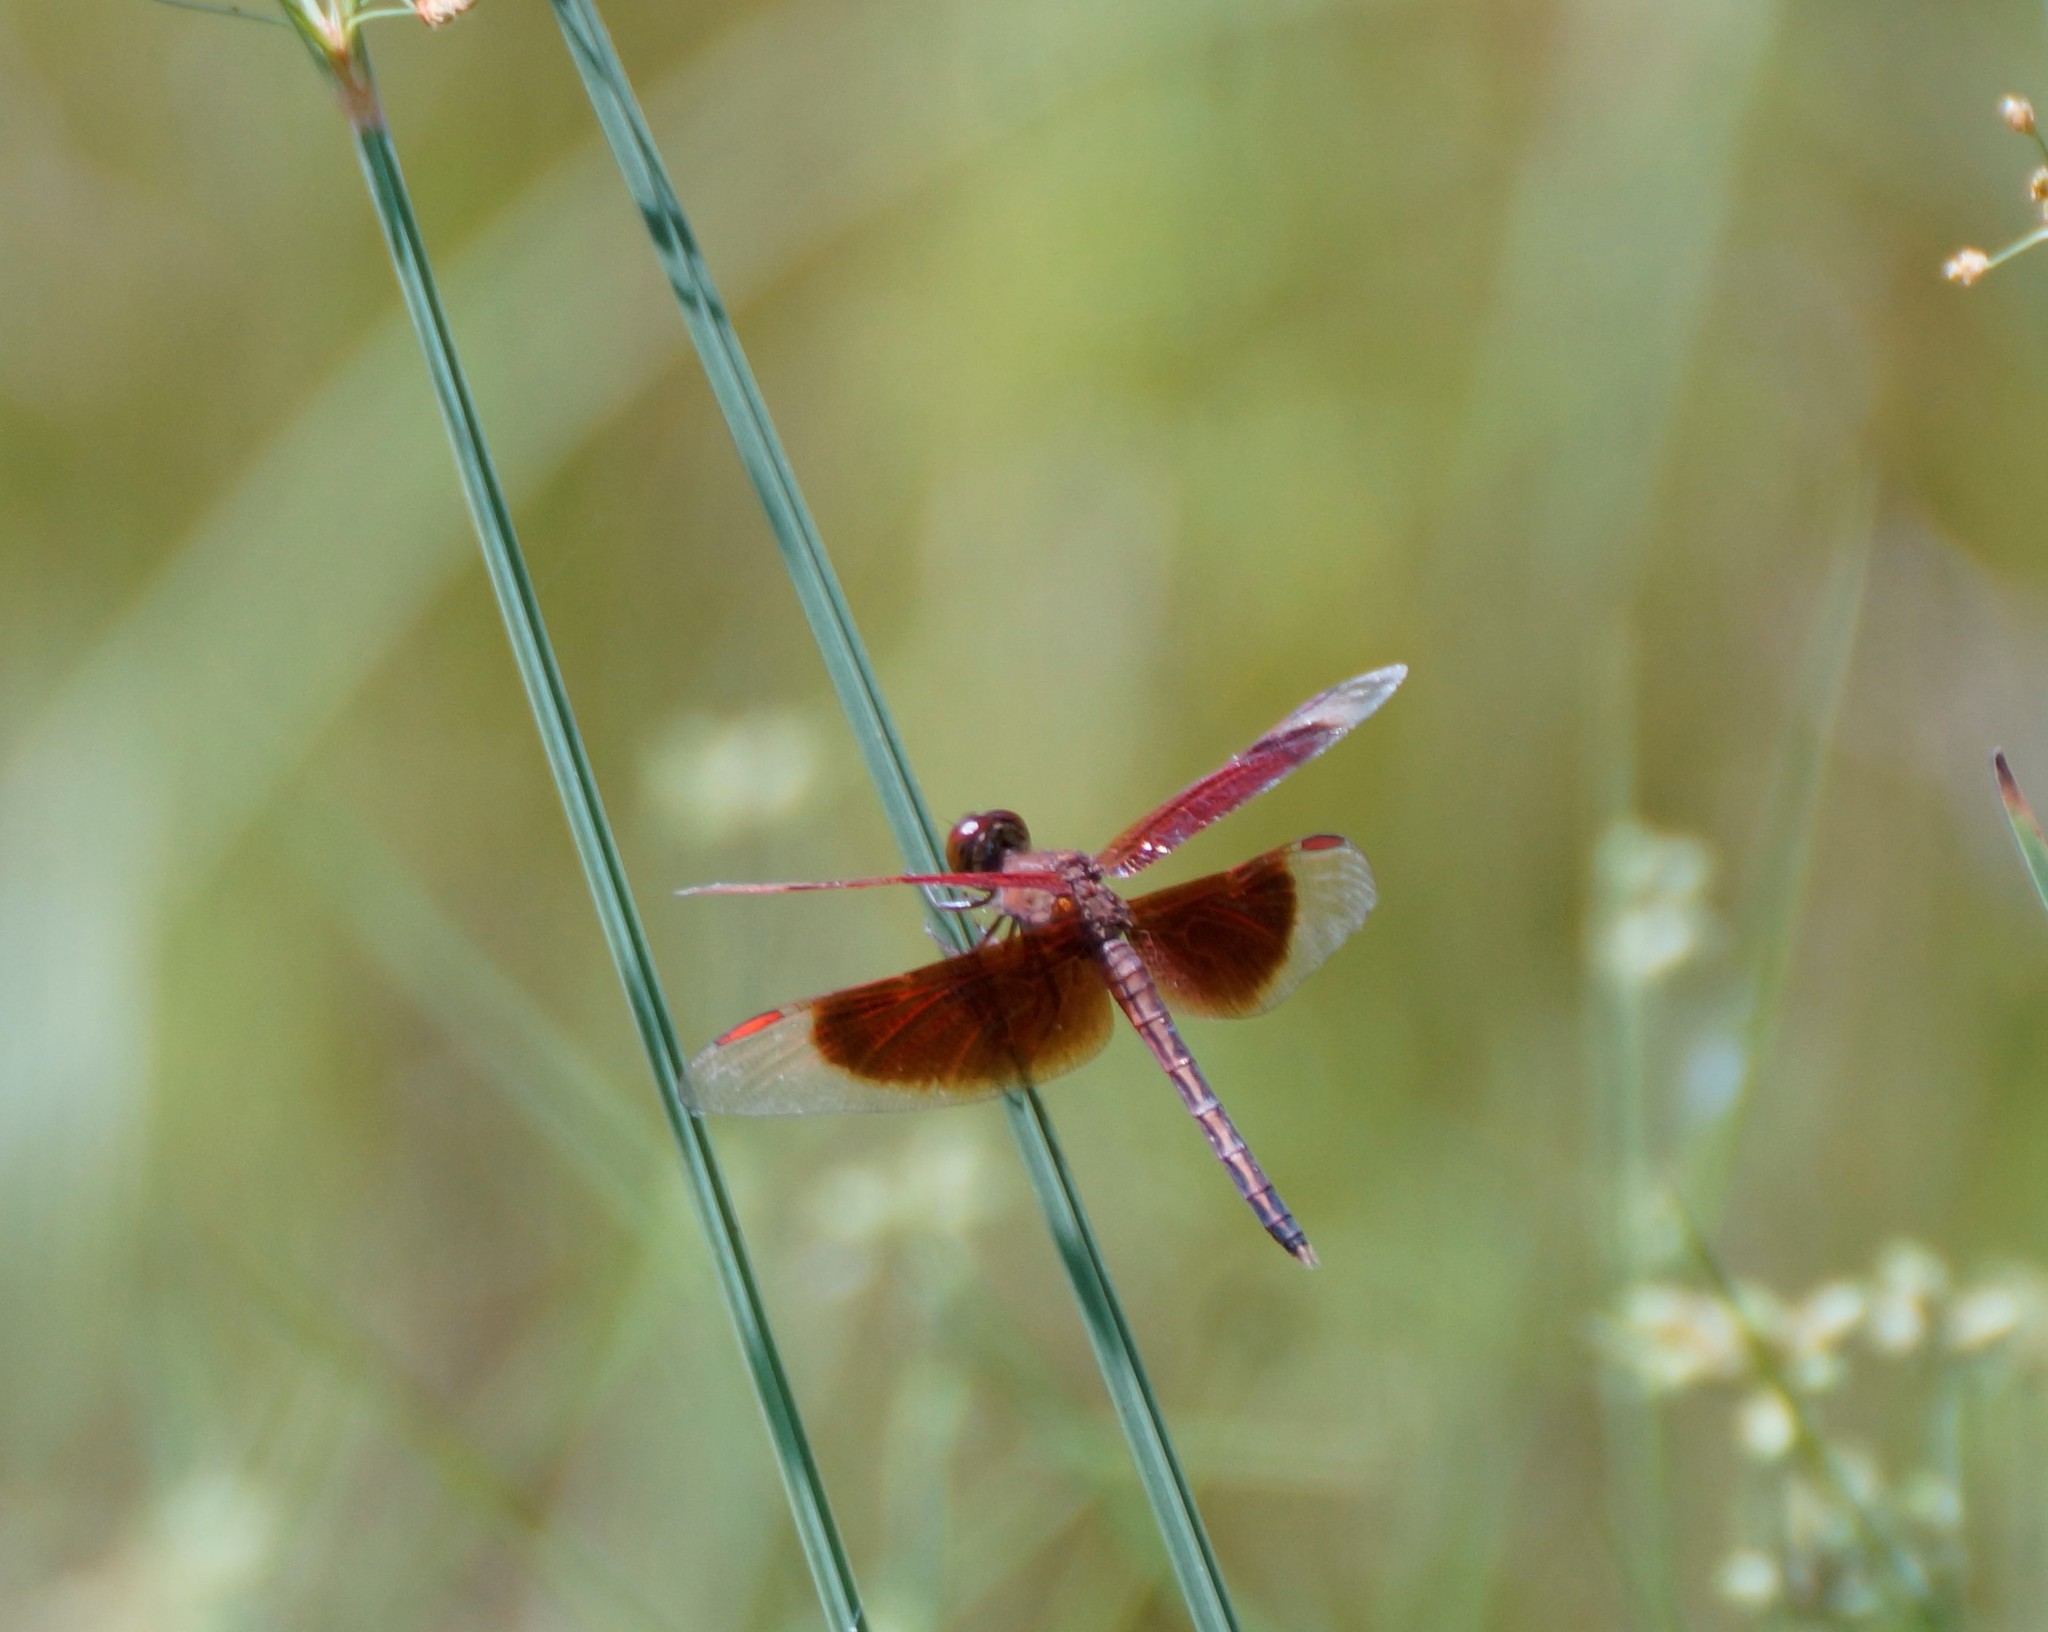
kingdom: Animalia
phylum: Arthropoda
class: Insecta
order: Odonata
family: Libellulidae
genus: Neurothemis
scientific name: Neurothemis stigmatizans
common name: Painted grasshawk
